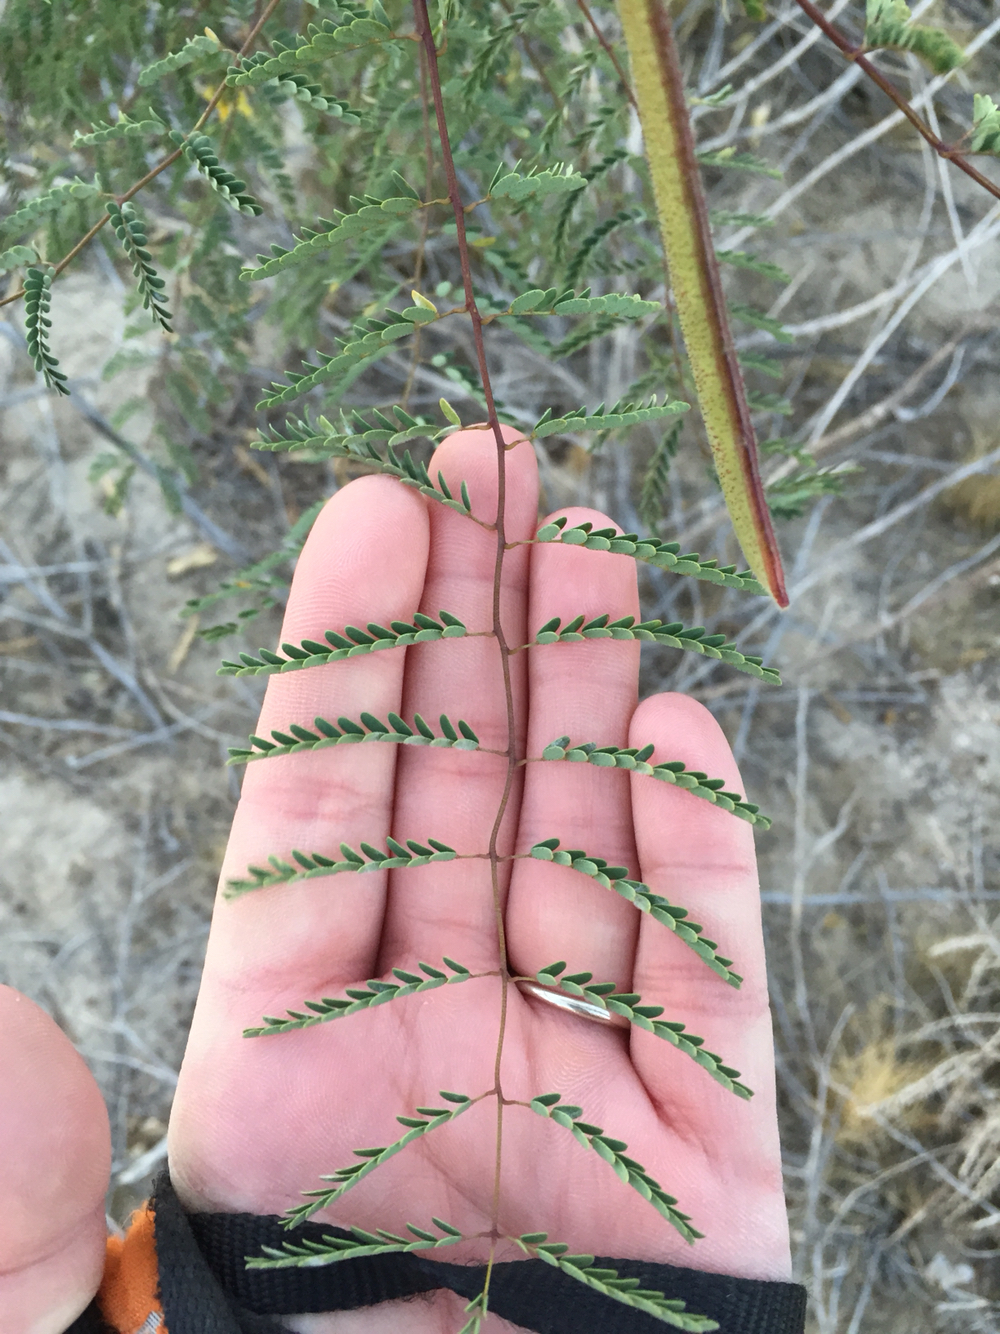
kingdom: Plantae
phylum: Tracheophyta
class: Magnoliopsida
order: Fabales
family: Fabaceae
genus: Erythrostemon
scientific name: Erythrostemon gilliesii
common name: Bird-of-paradise shrub
